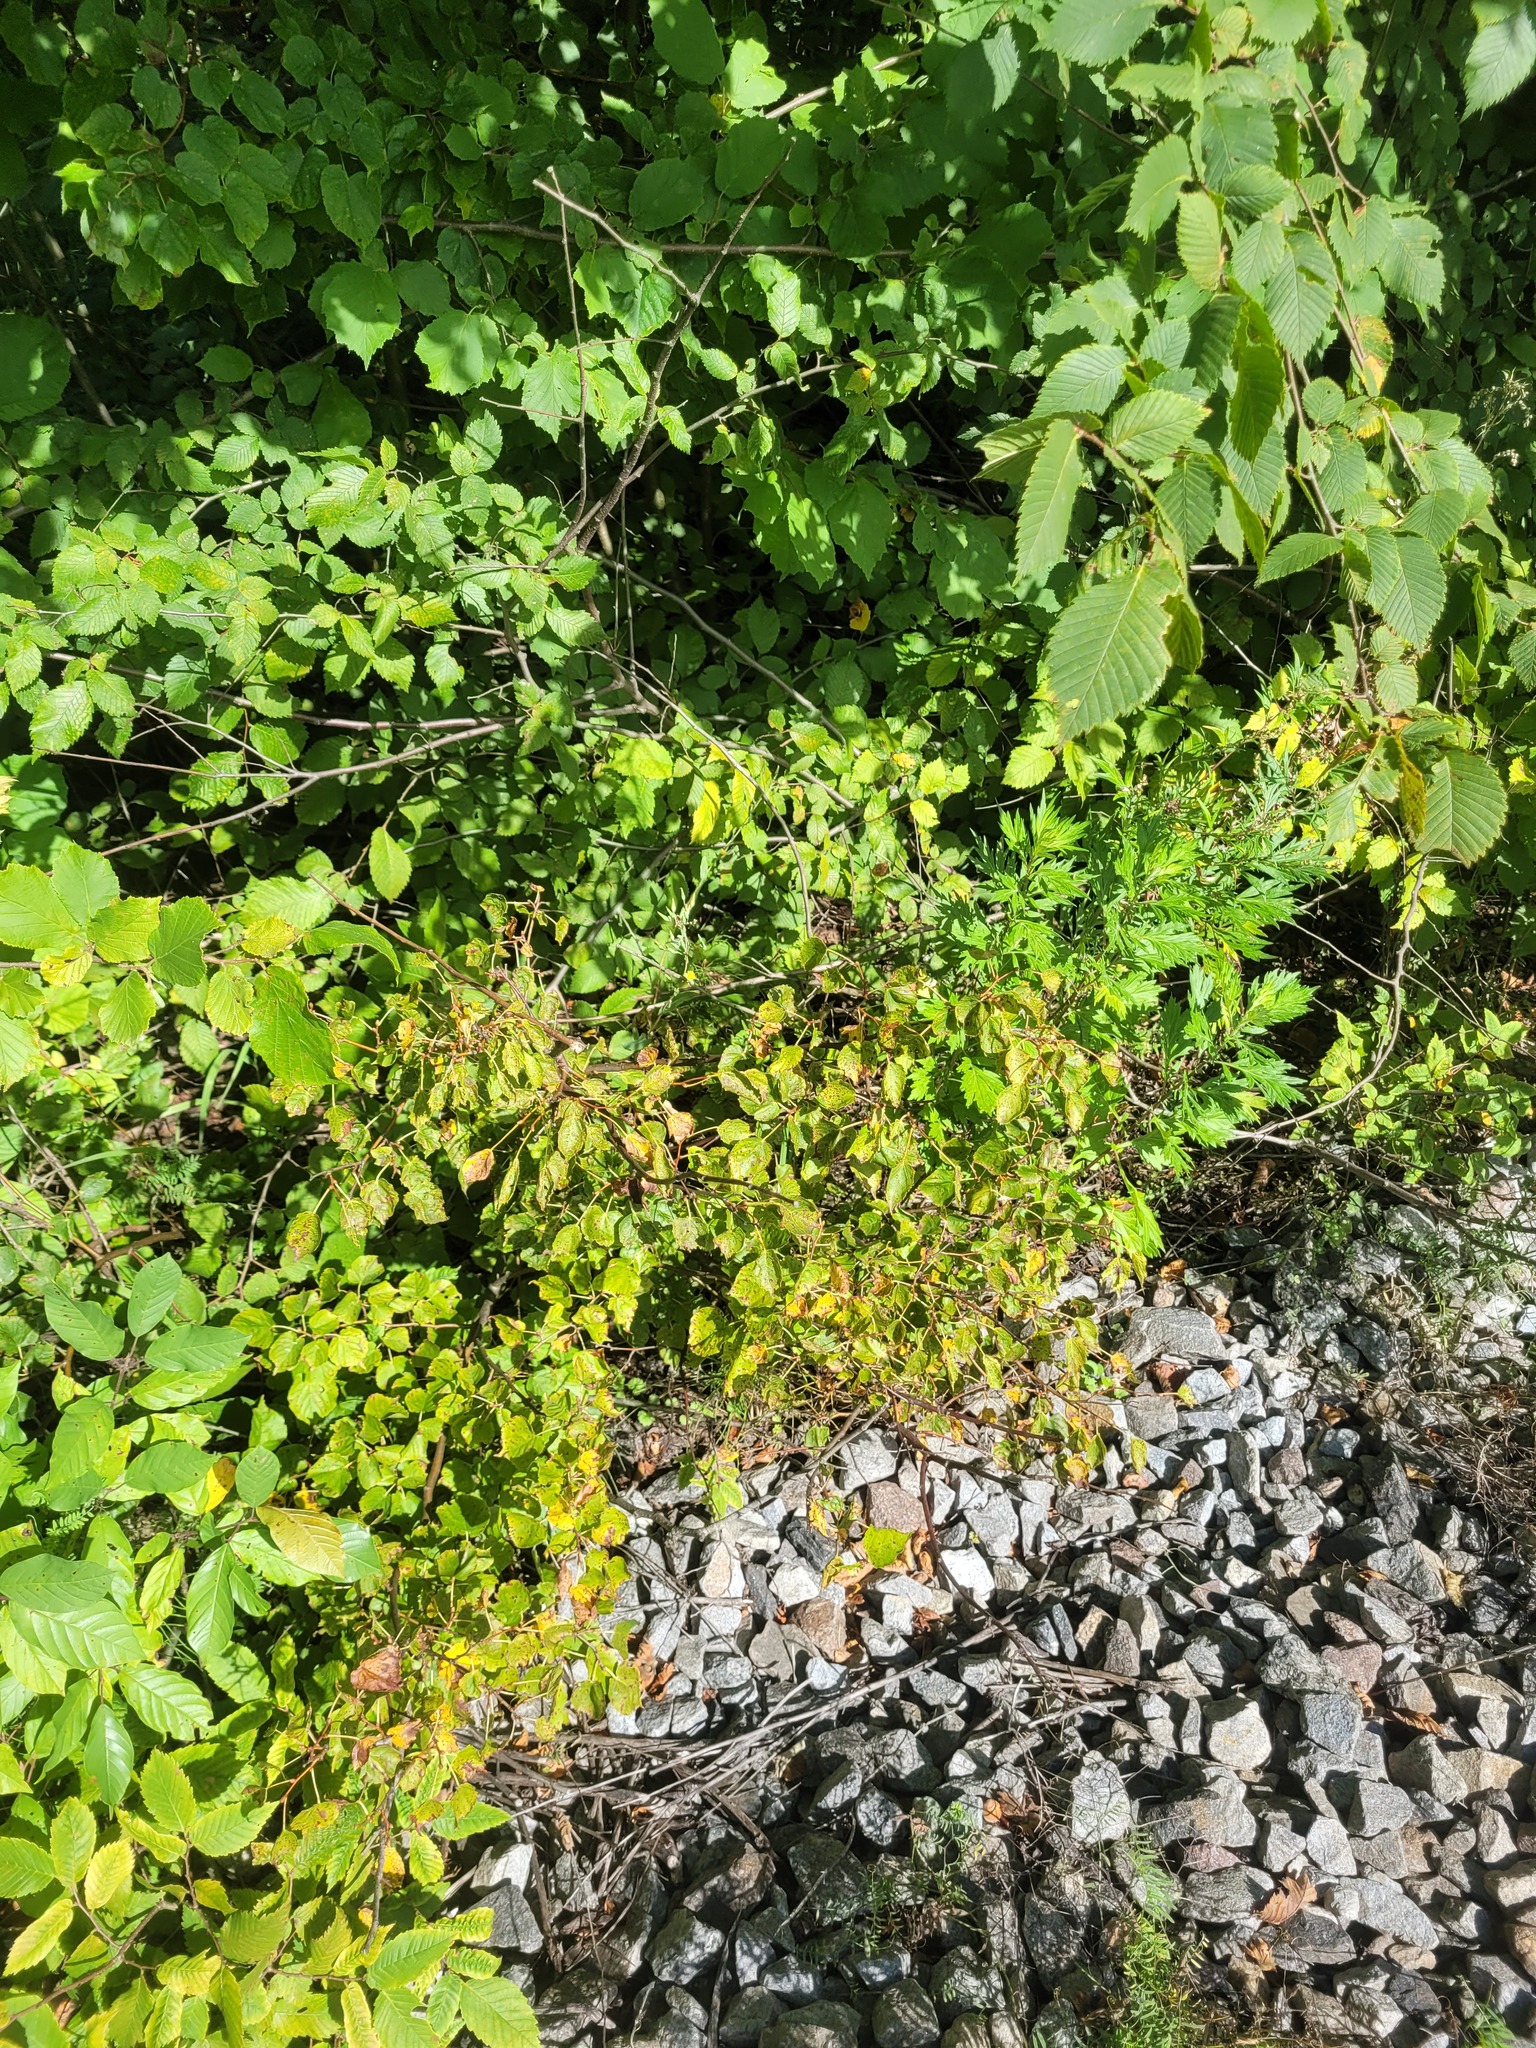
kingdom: Plantae
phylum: Tracheophyta
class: Magnoliopsida
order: Malvales
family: Malvaceae
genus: Tilia
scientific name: Tilia cordata
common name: Small-leaved lime
